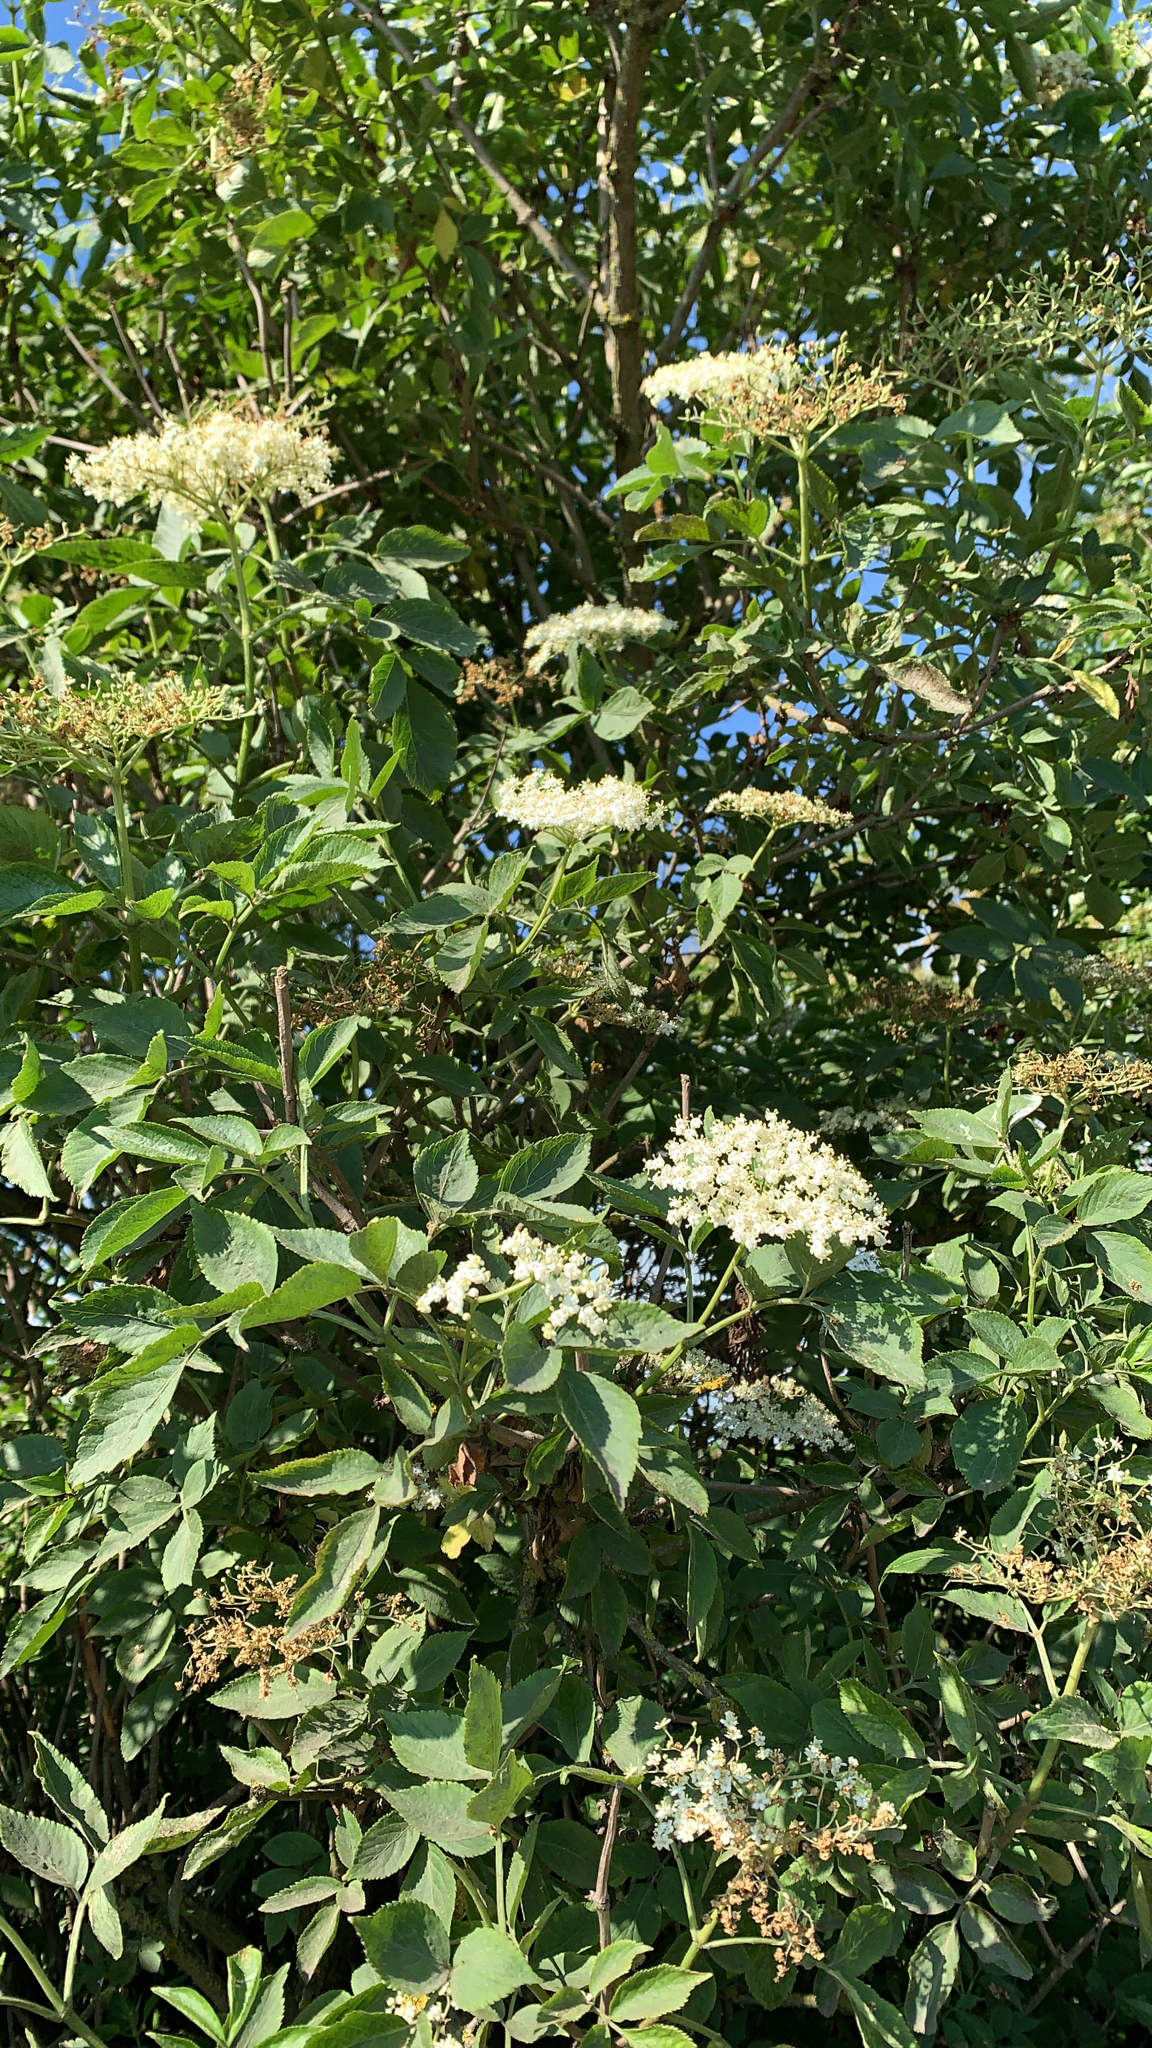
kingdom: Plantae
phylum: Tracheophyta
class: Magnoliopsida
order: Dipsacales
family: Viburnaceae
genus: Sambucus
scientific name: Sambucus nigra
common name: Elder
